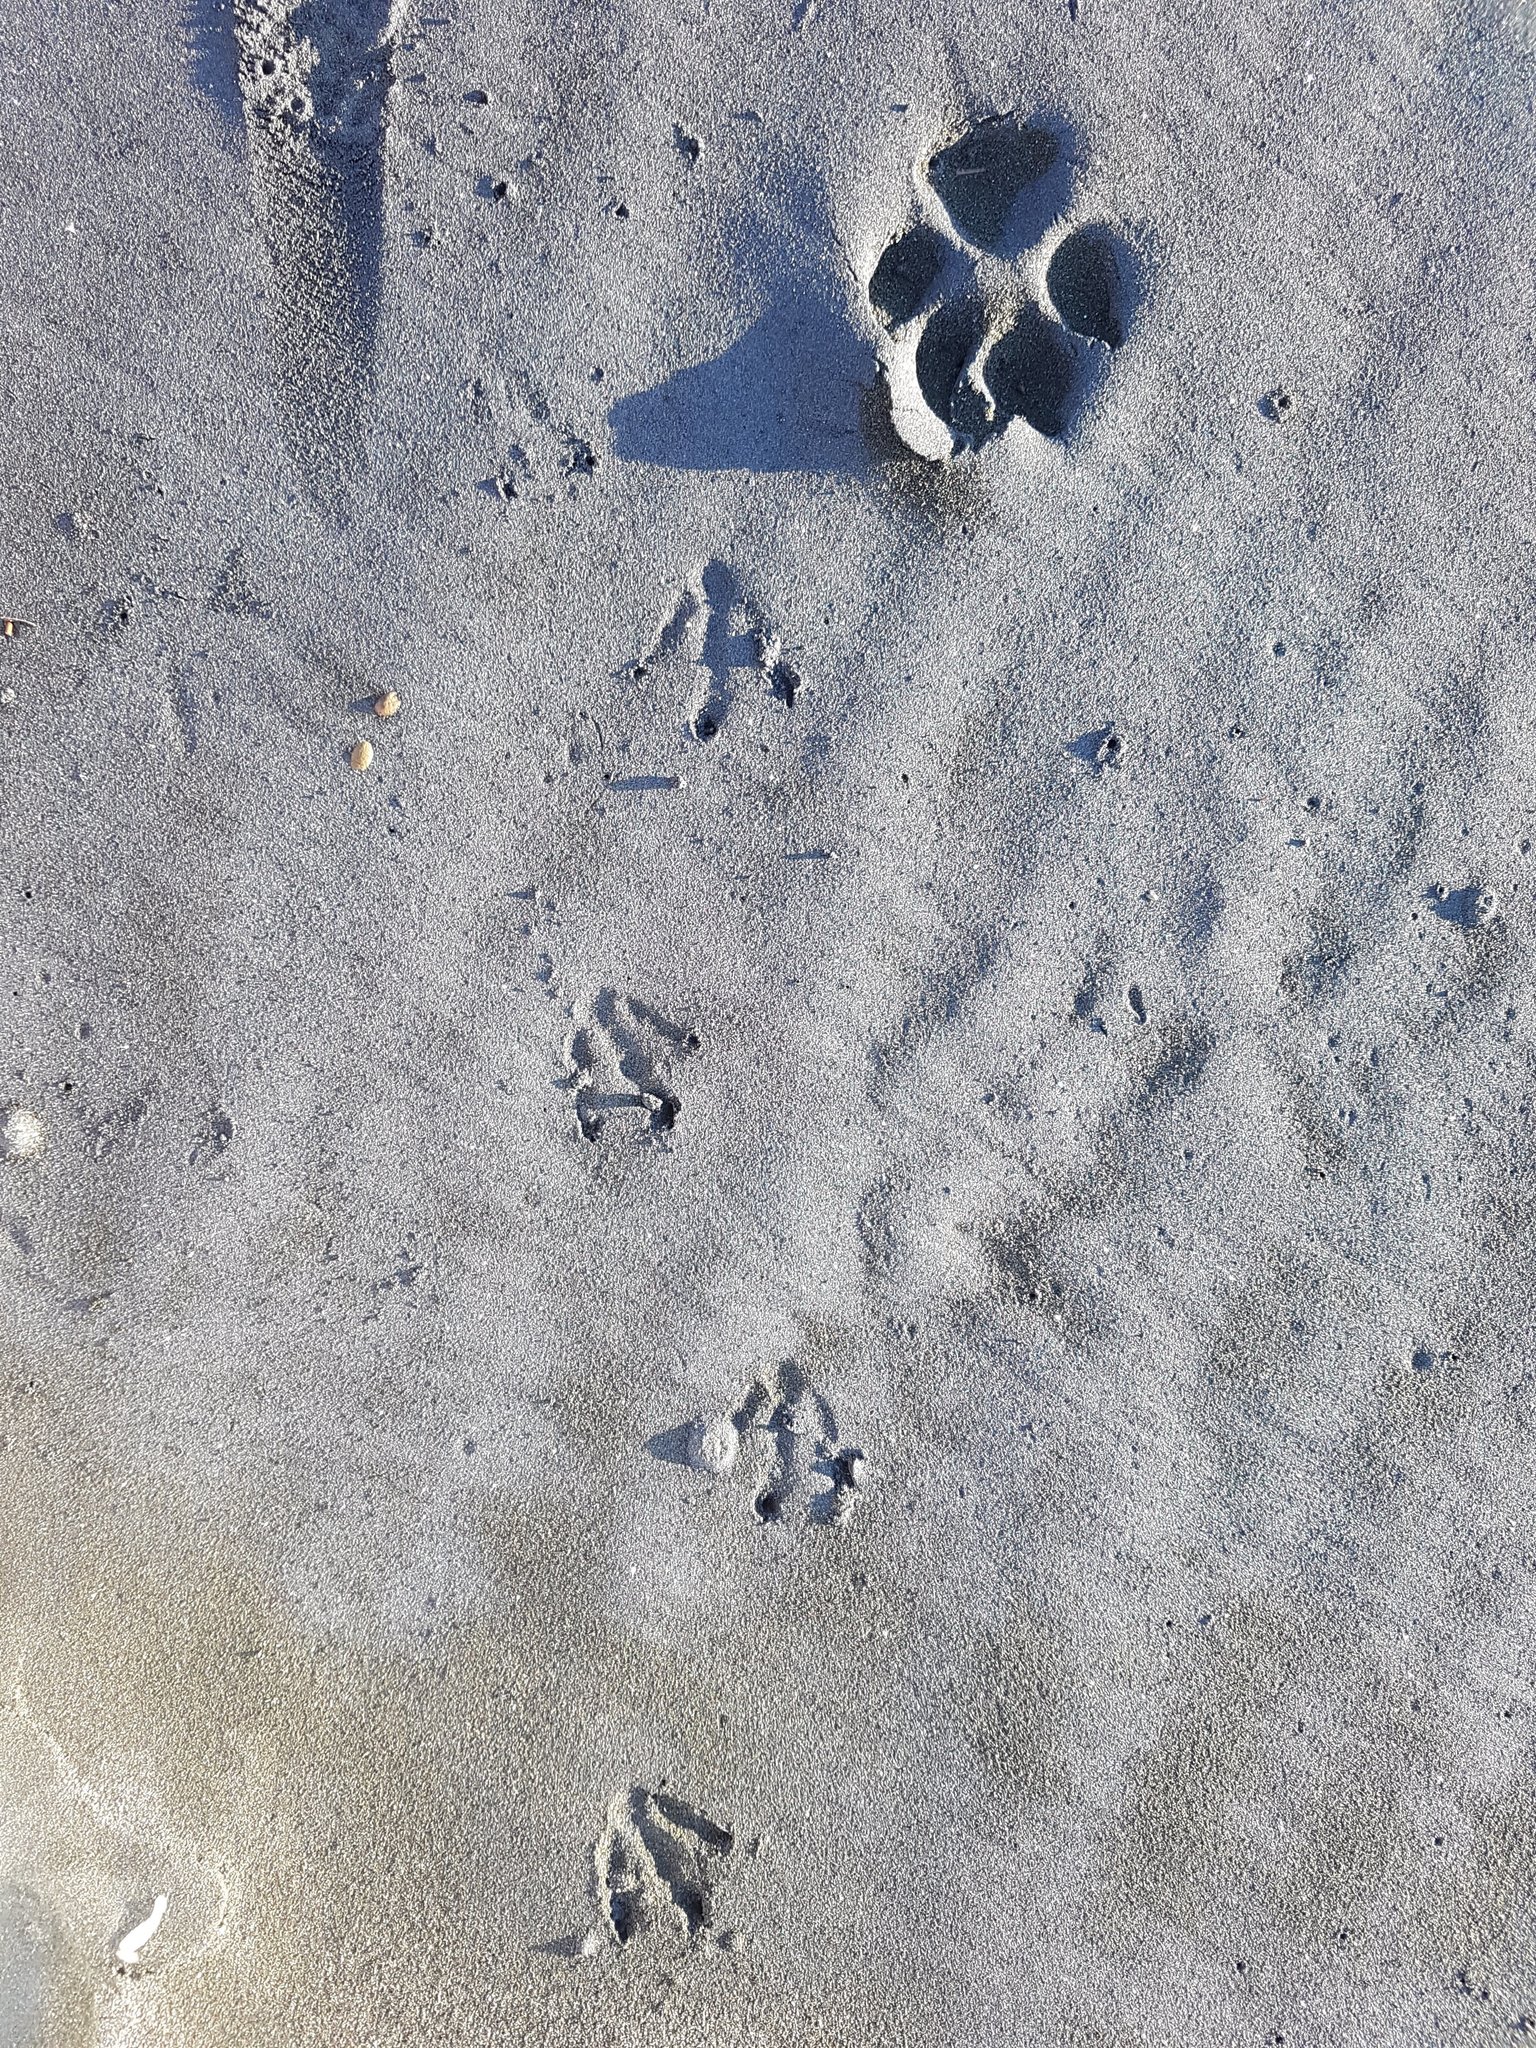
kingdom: Animalia
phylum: Chordata
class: Aves
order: Sphenisciformes
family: Spheniscidae
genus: Eudyptula
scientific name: Eudyptula minor
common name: Little penguin
